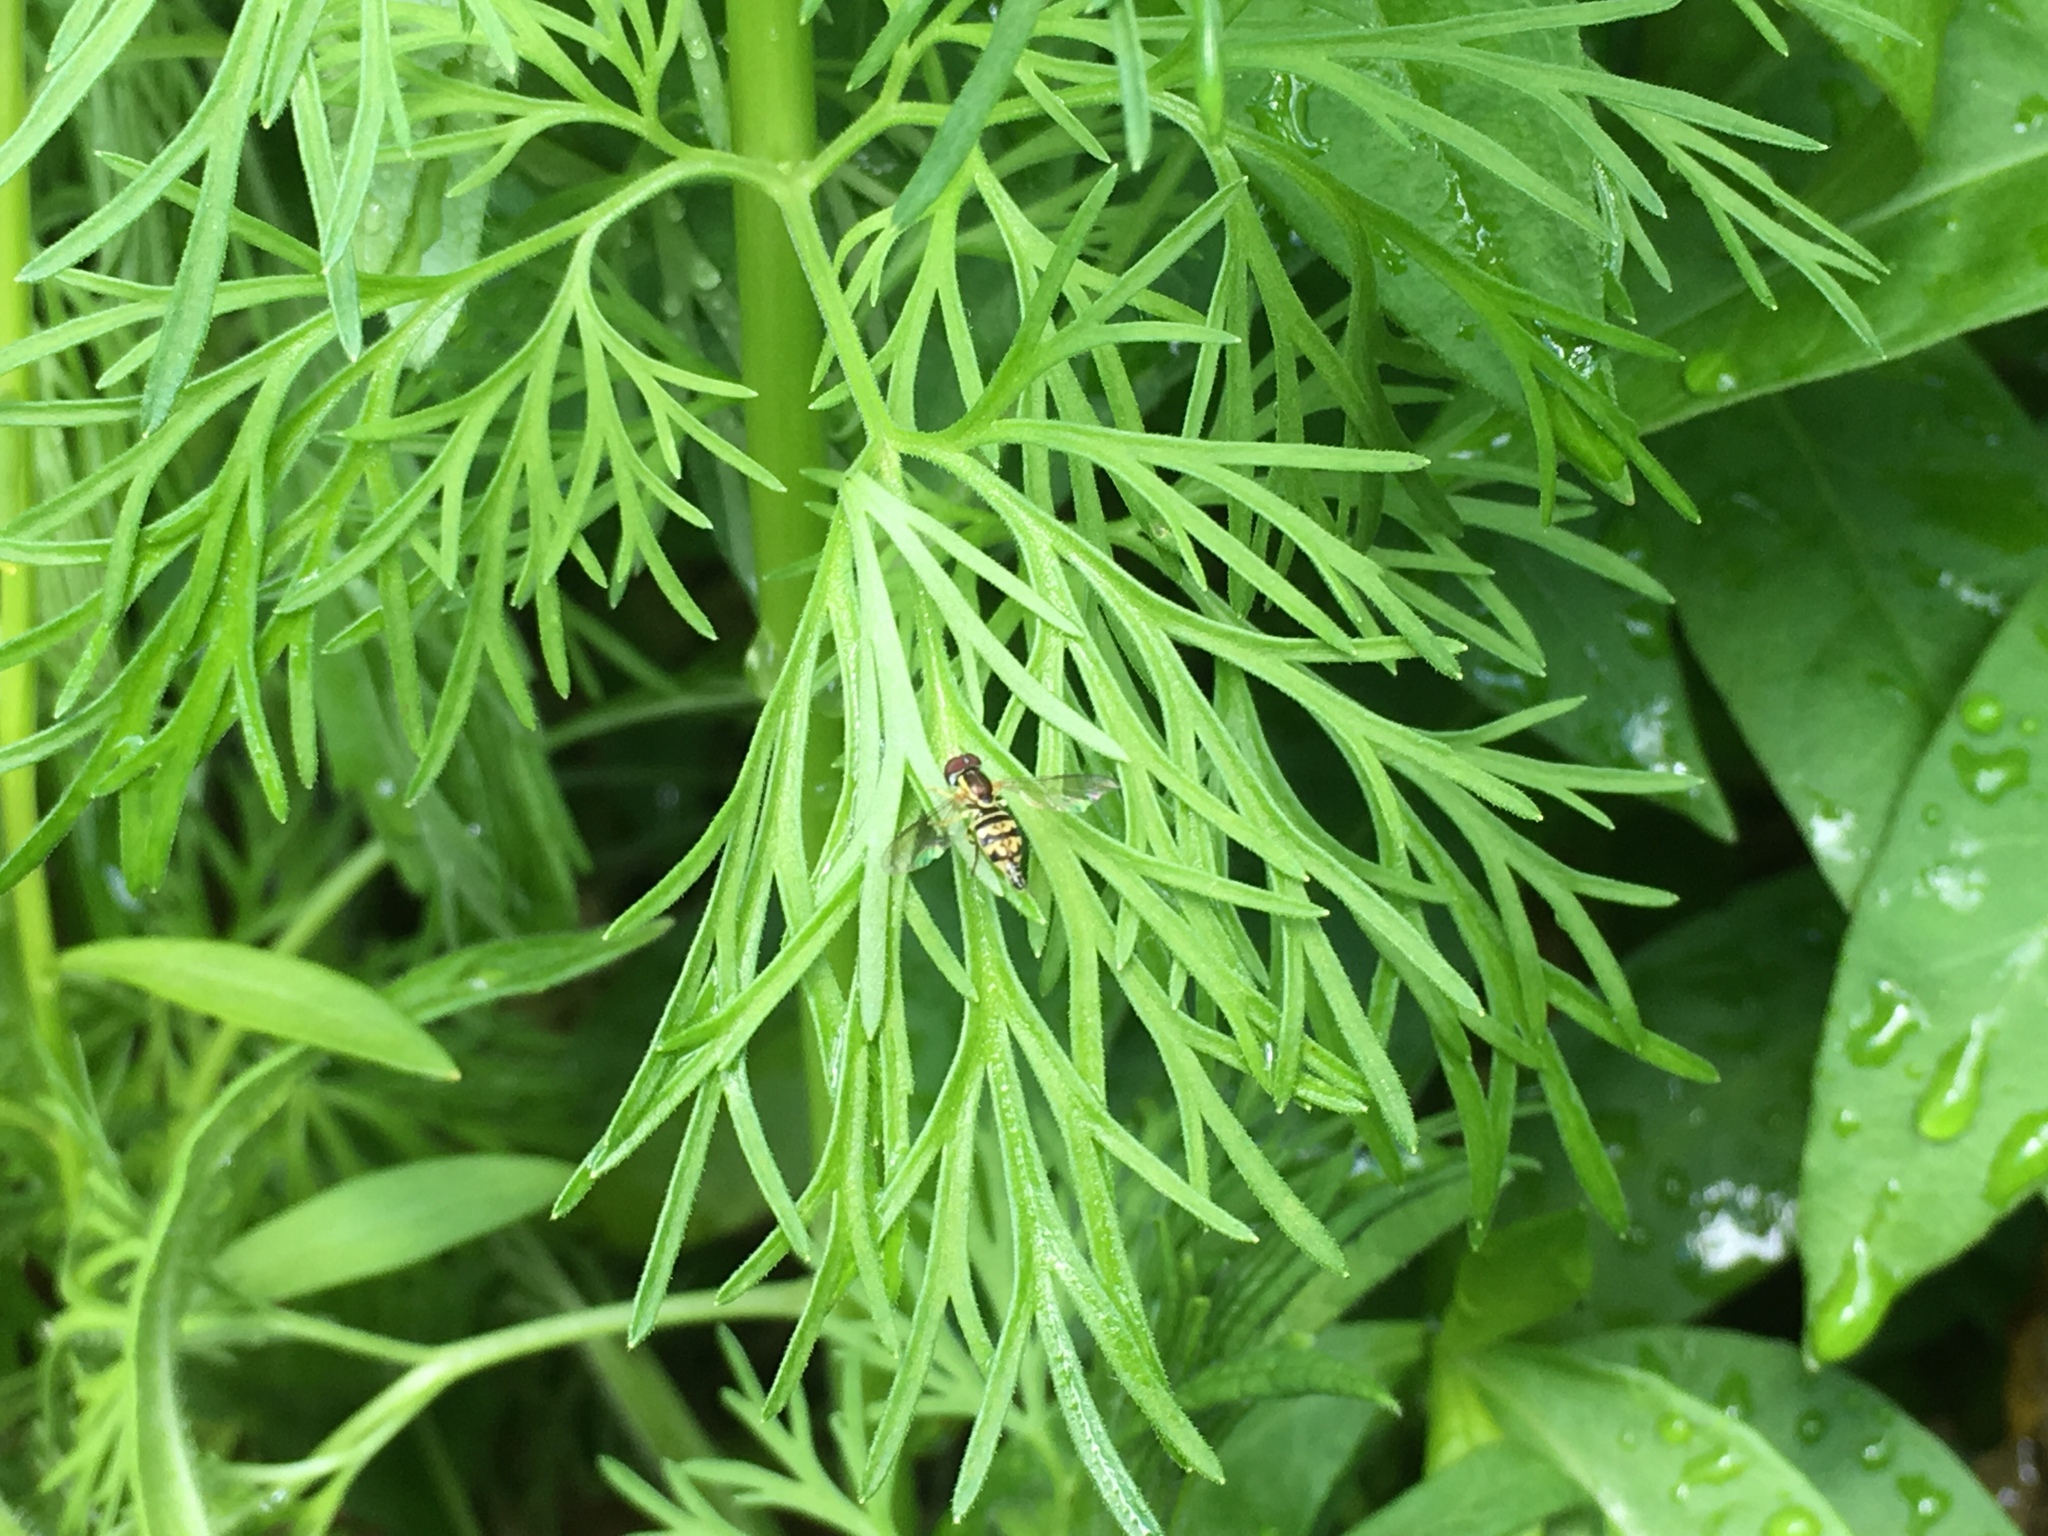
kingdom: Animalia
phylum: Arthropoda
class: Insecta
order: Diptera
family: Syrphidae
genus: Toxomerus
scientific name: Toxomerus geminatus
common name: Eastern calligrapher
